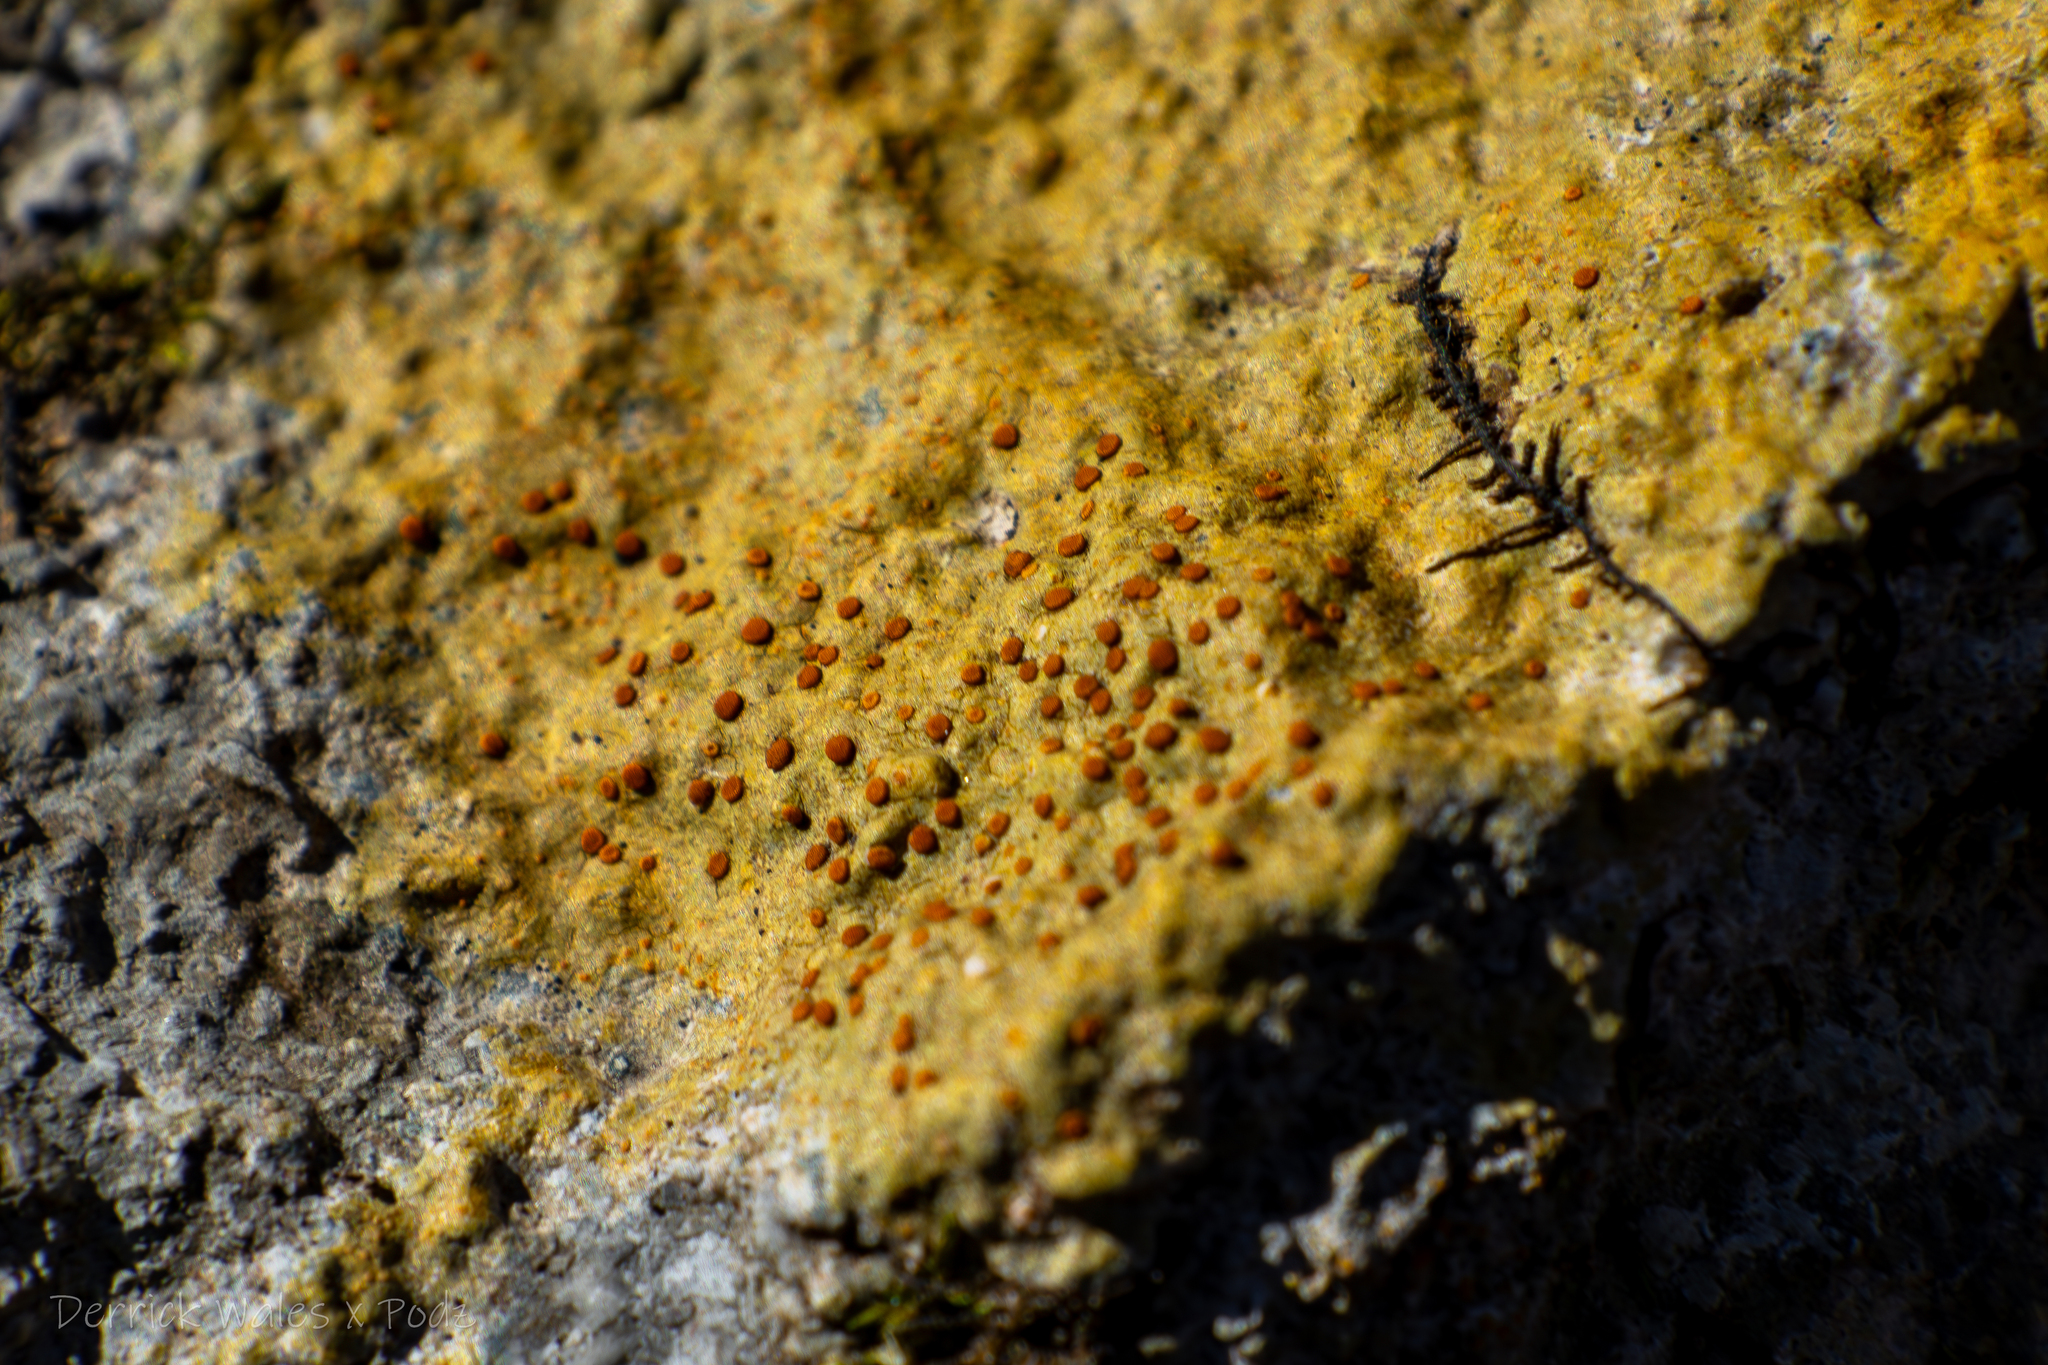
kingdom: Fungi
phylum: Ascomycota
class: Lecanoromycetes
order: Teloschistales
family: Teloschistaceae
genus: Gyalolechia
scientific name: Gyalolechia flavovirescens
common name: Sulphur firedot
